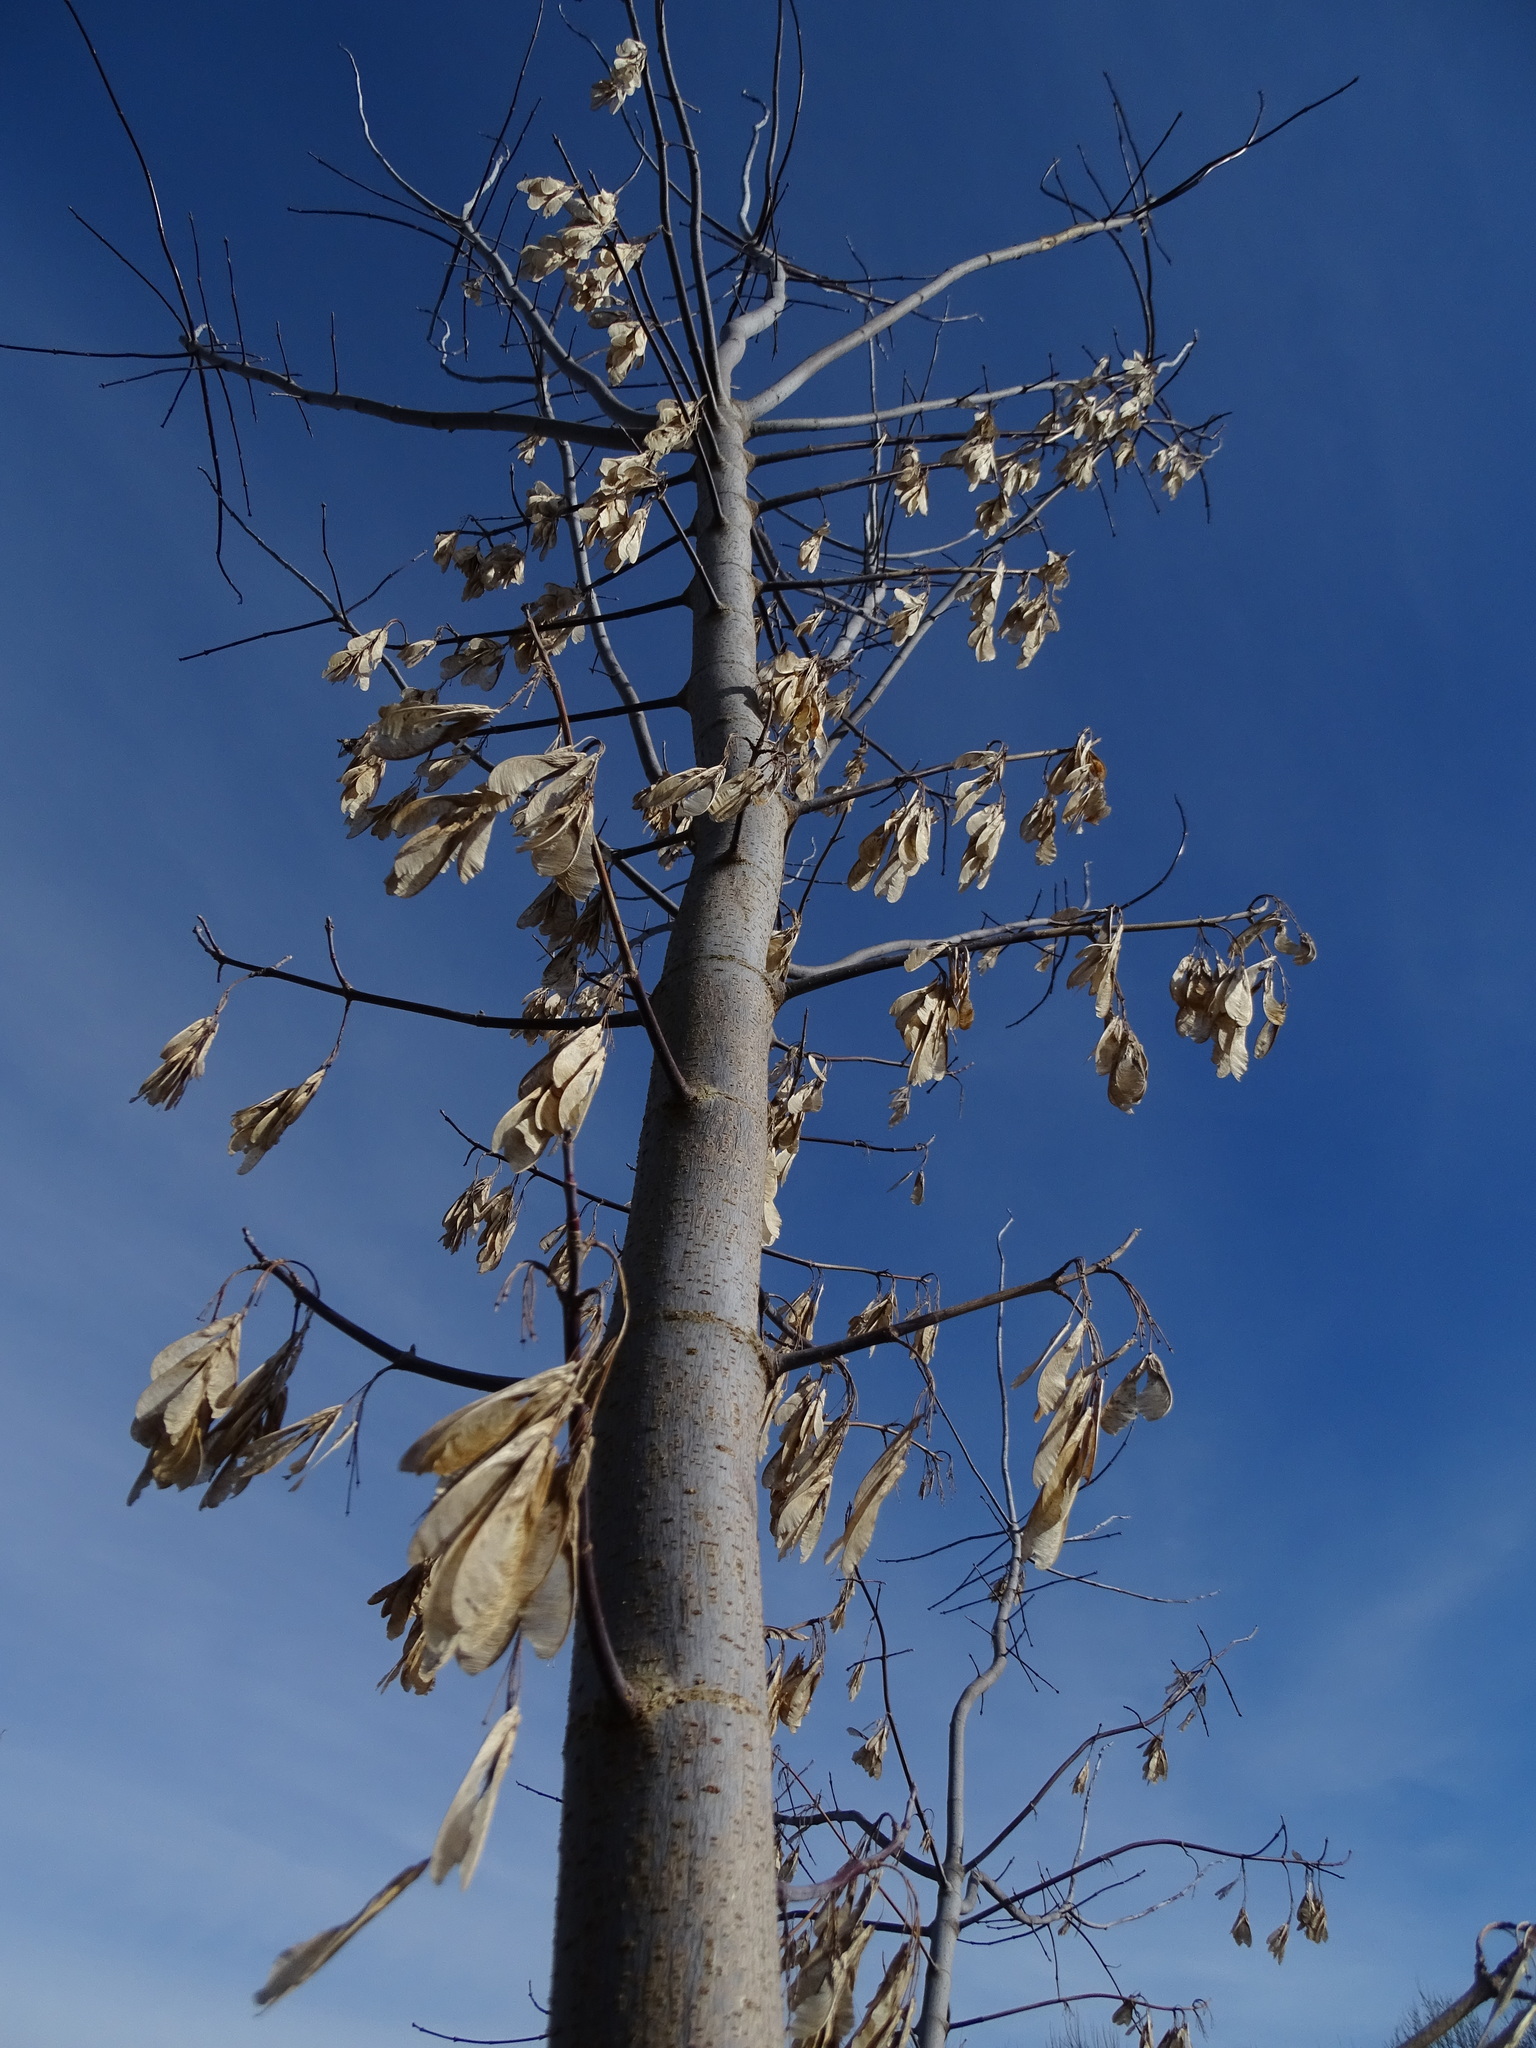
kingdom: Plantae
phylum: Tracheophyta
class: Magnoliopsida
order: Sapindales
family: Sapindaceae
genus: Acer
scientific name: Acer negundo
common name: Ashleaf maple
